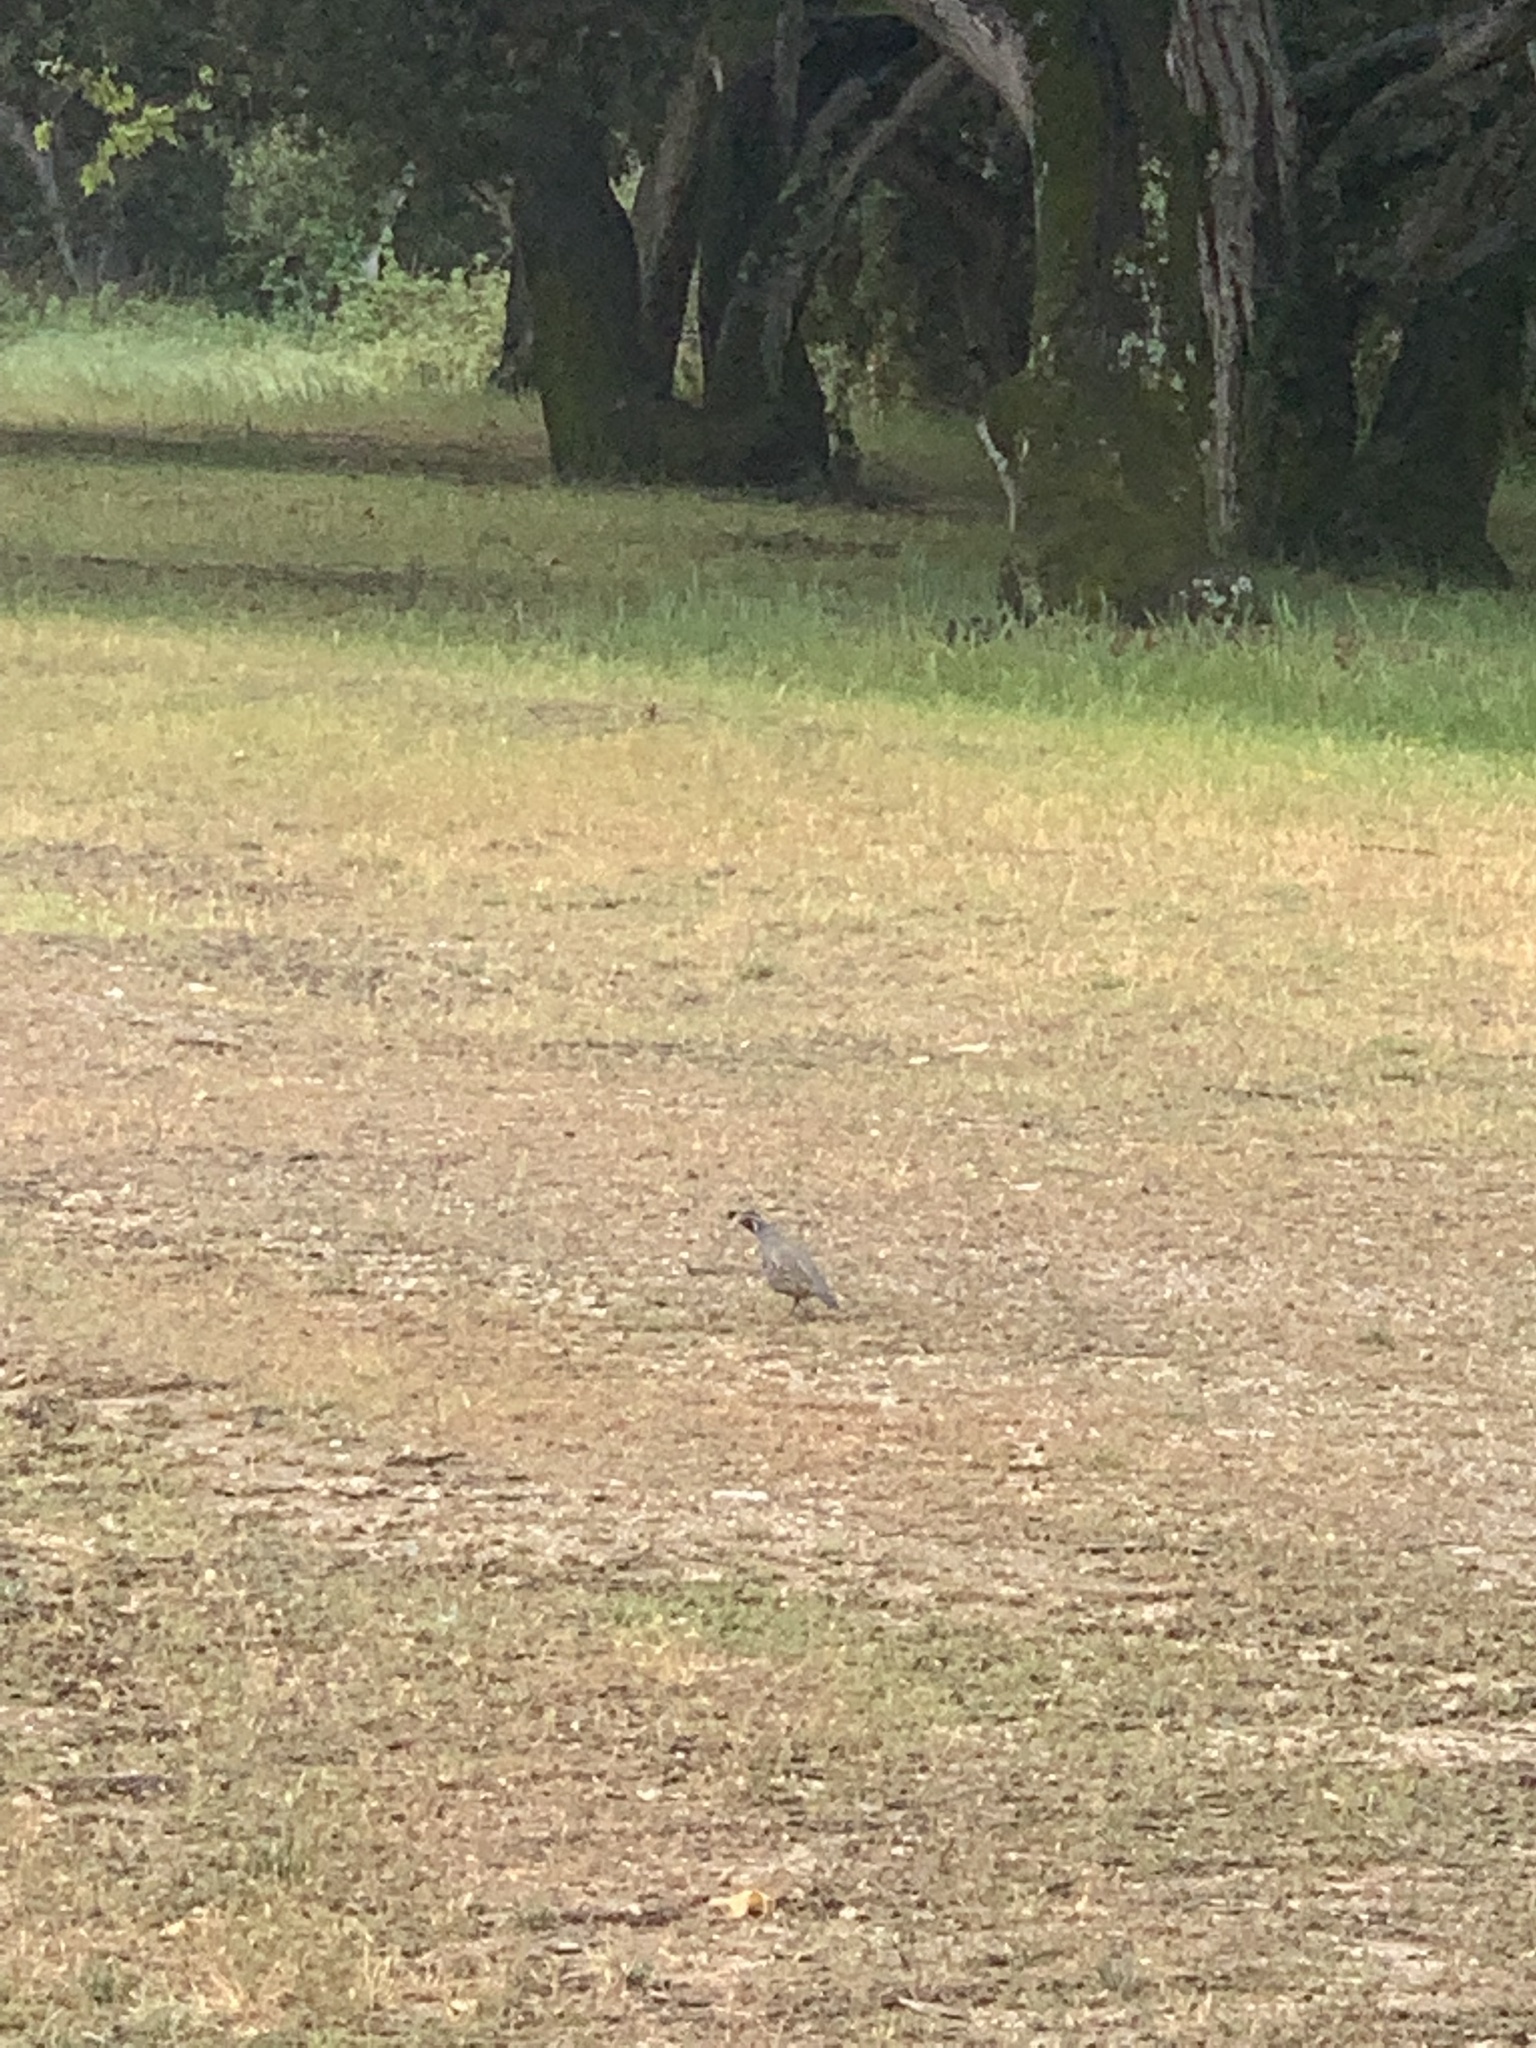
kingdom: Animalia
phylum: Chordata
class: Aves
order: Galliformes
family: Odontophoridae
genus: Callipepla
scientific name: Callipepla californica
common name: California quail
